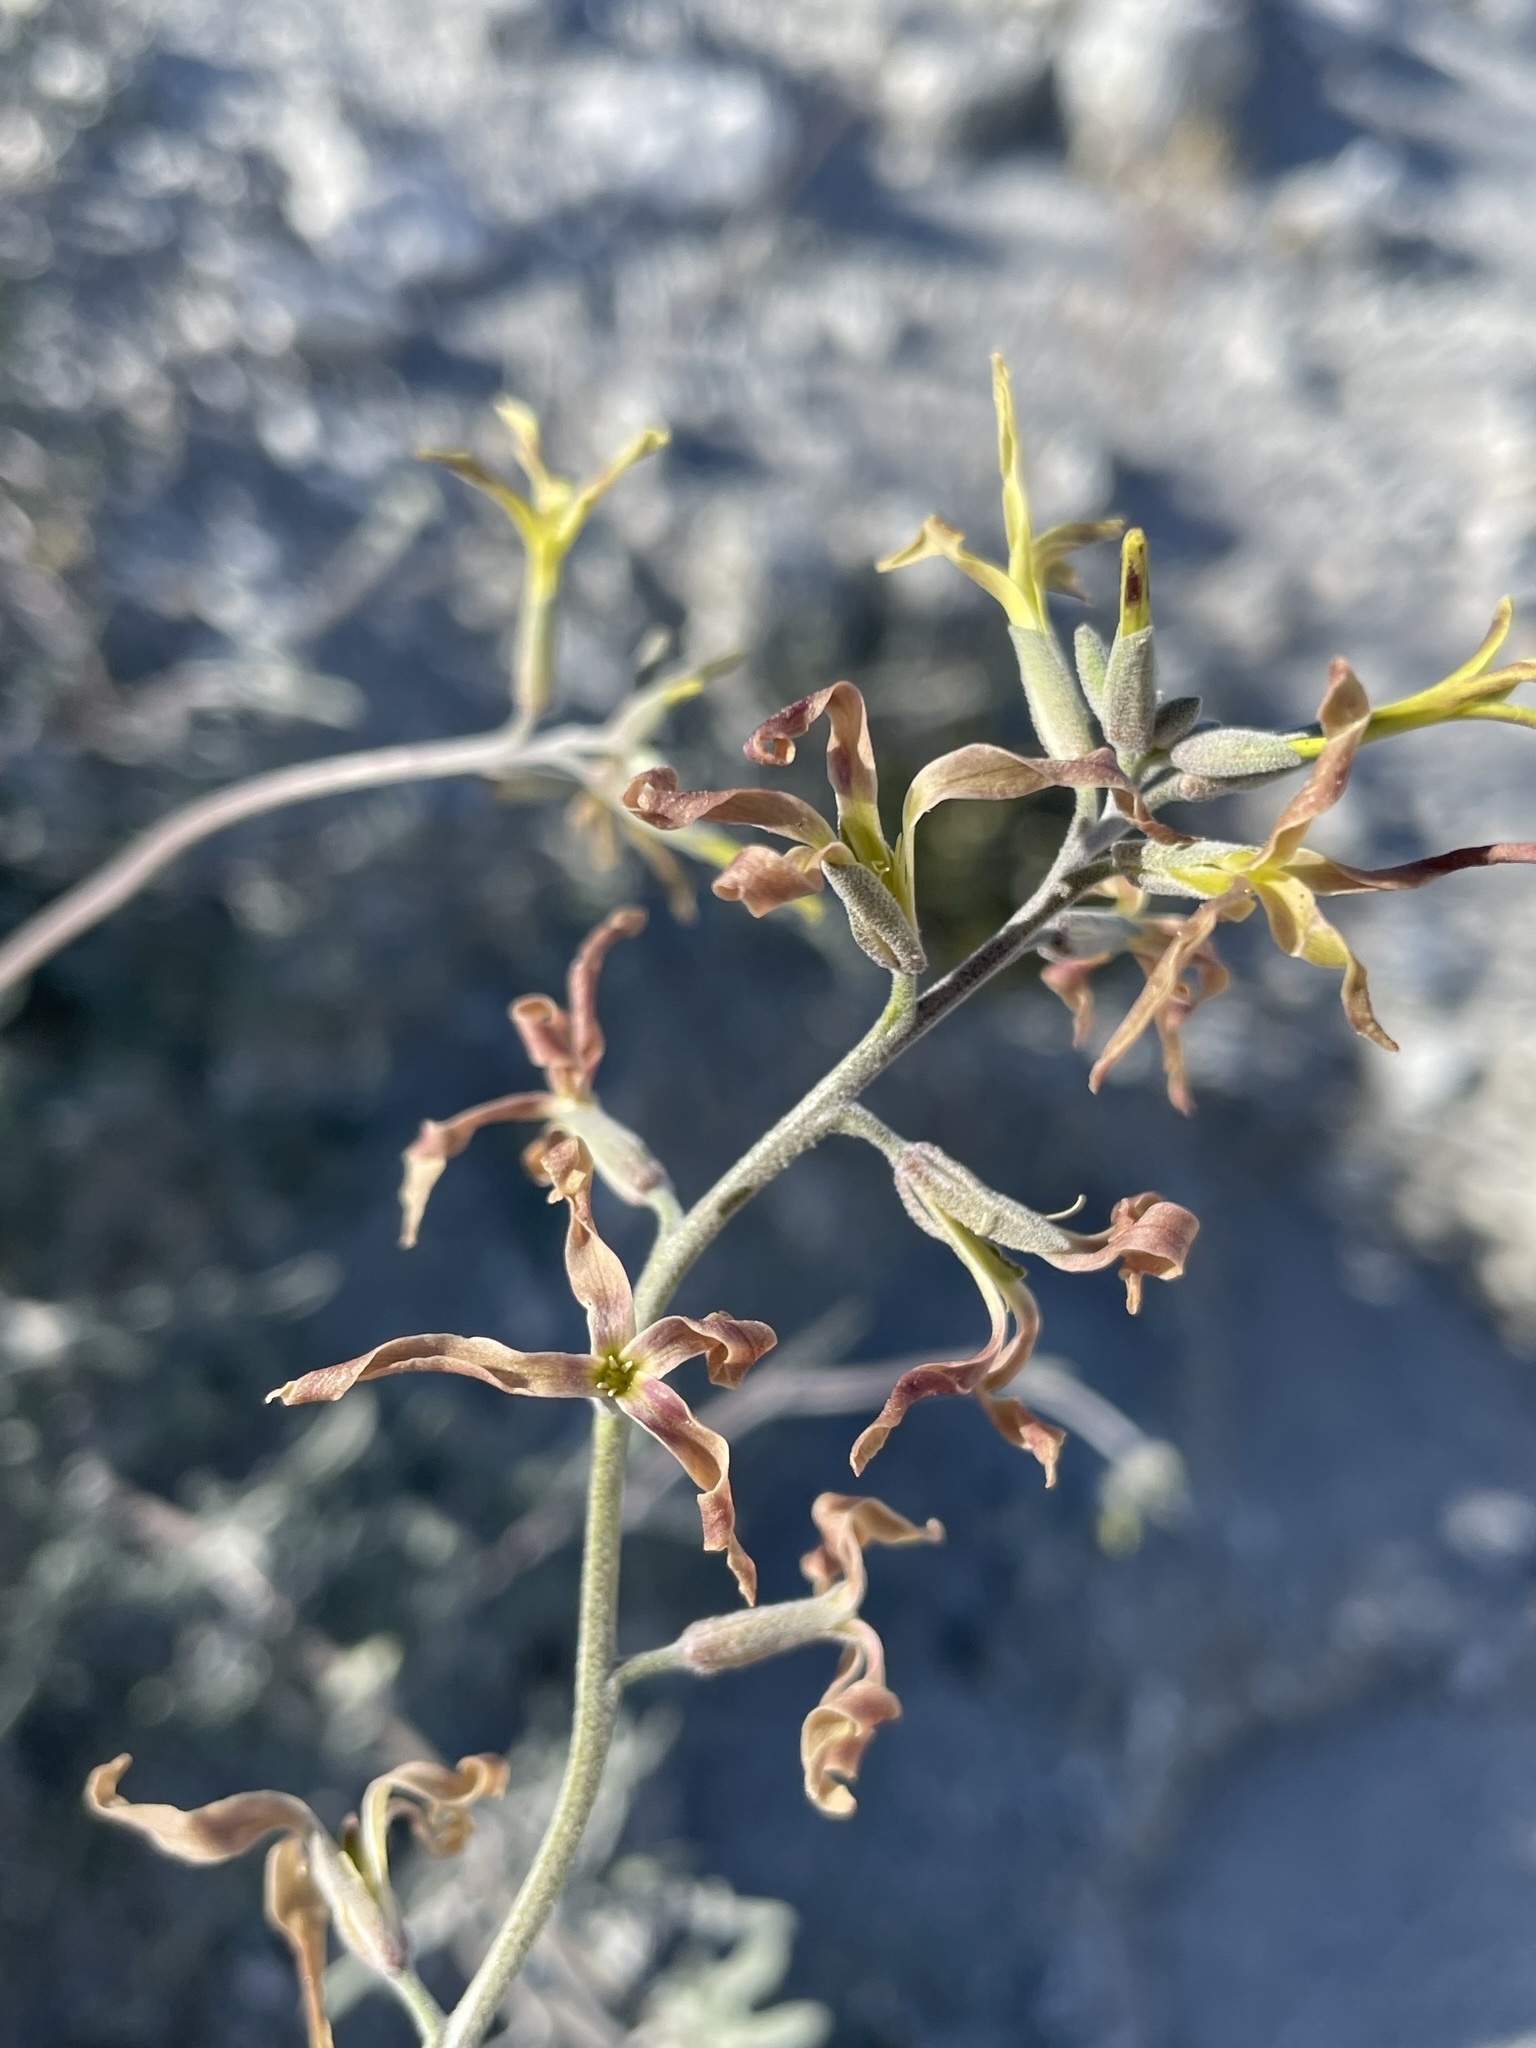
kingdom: Plantae
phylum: Tracheophyta
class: Magnoliopsida
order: Brassicales
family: Brassicaceae
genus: Lyrocarpa
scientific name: Lyrocarpa coulteri
